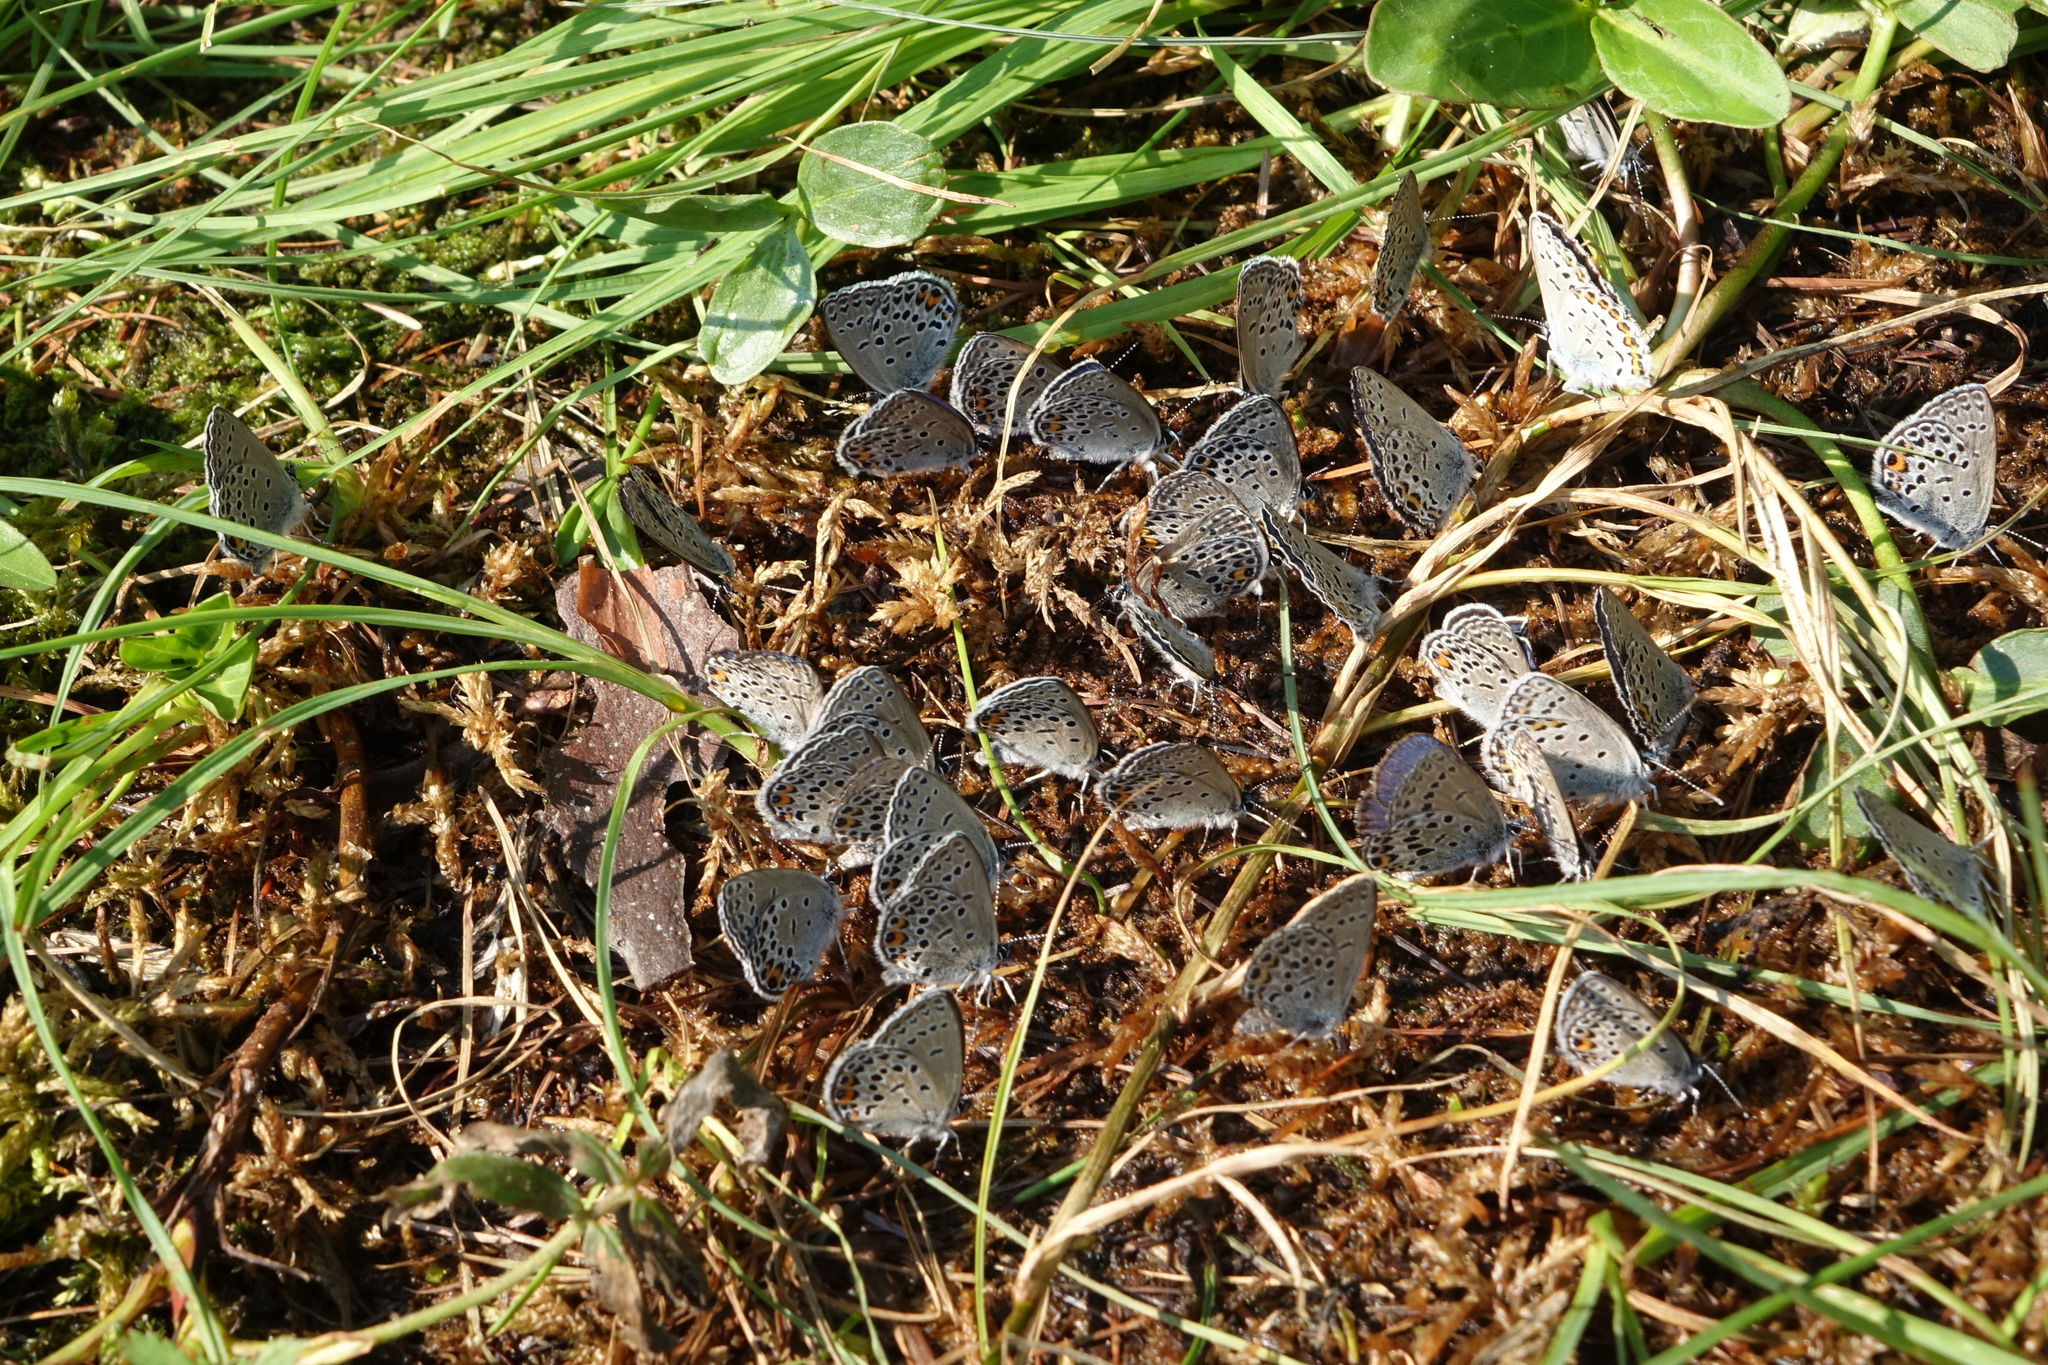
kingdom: Animalia
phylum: Arthropoda
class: Insecta
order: Lepidoptera
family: Lycaenidae
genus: Vacciniina
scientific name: Vacciniina optilete
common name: Cranberry blue
